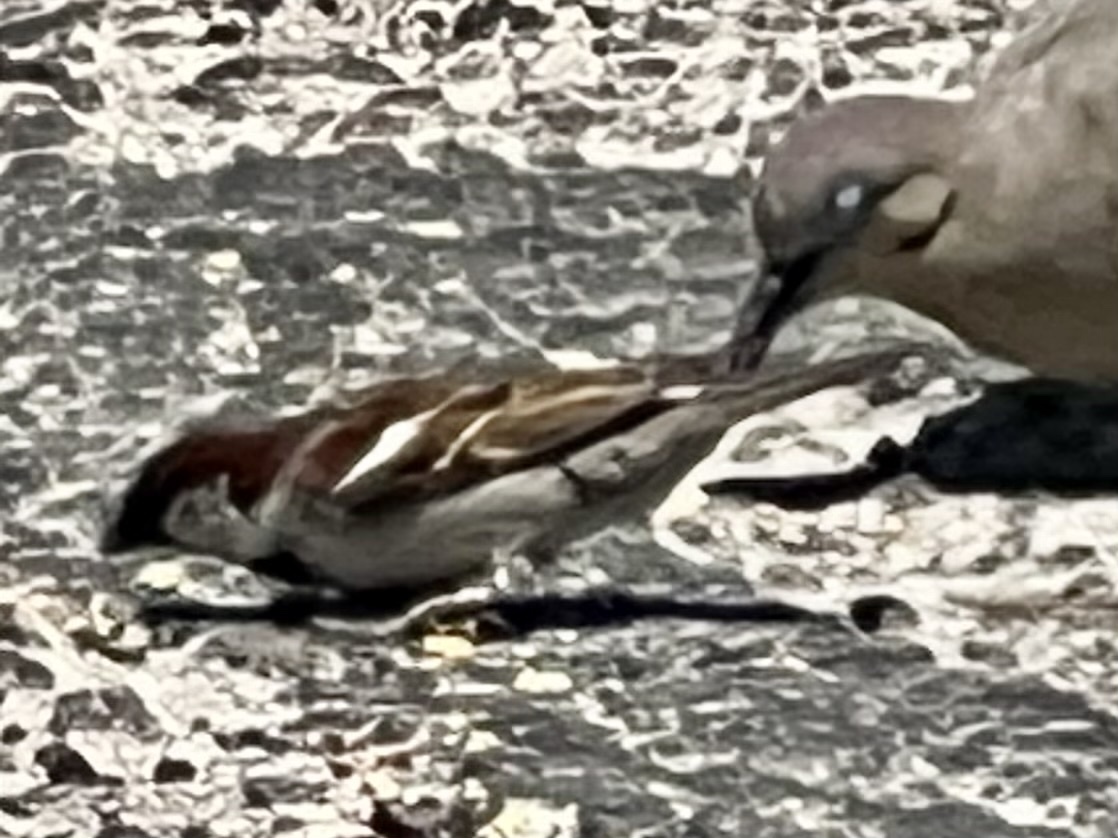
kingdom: Animalia
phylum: Chordata
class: Aves
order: Passeriformes
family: Passeridae
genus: Passer
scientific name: Passer domesticus
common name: House sparrow
